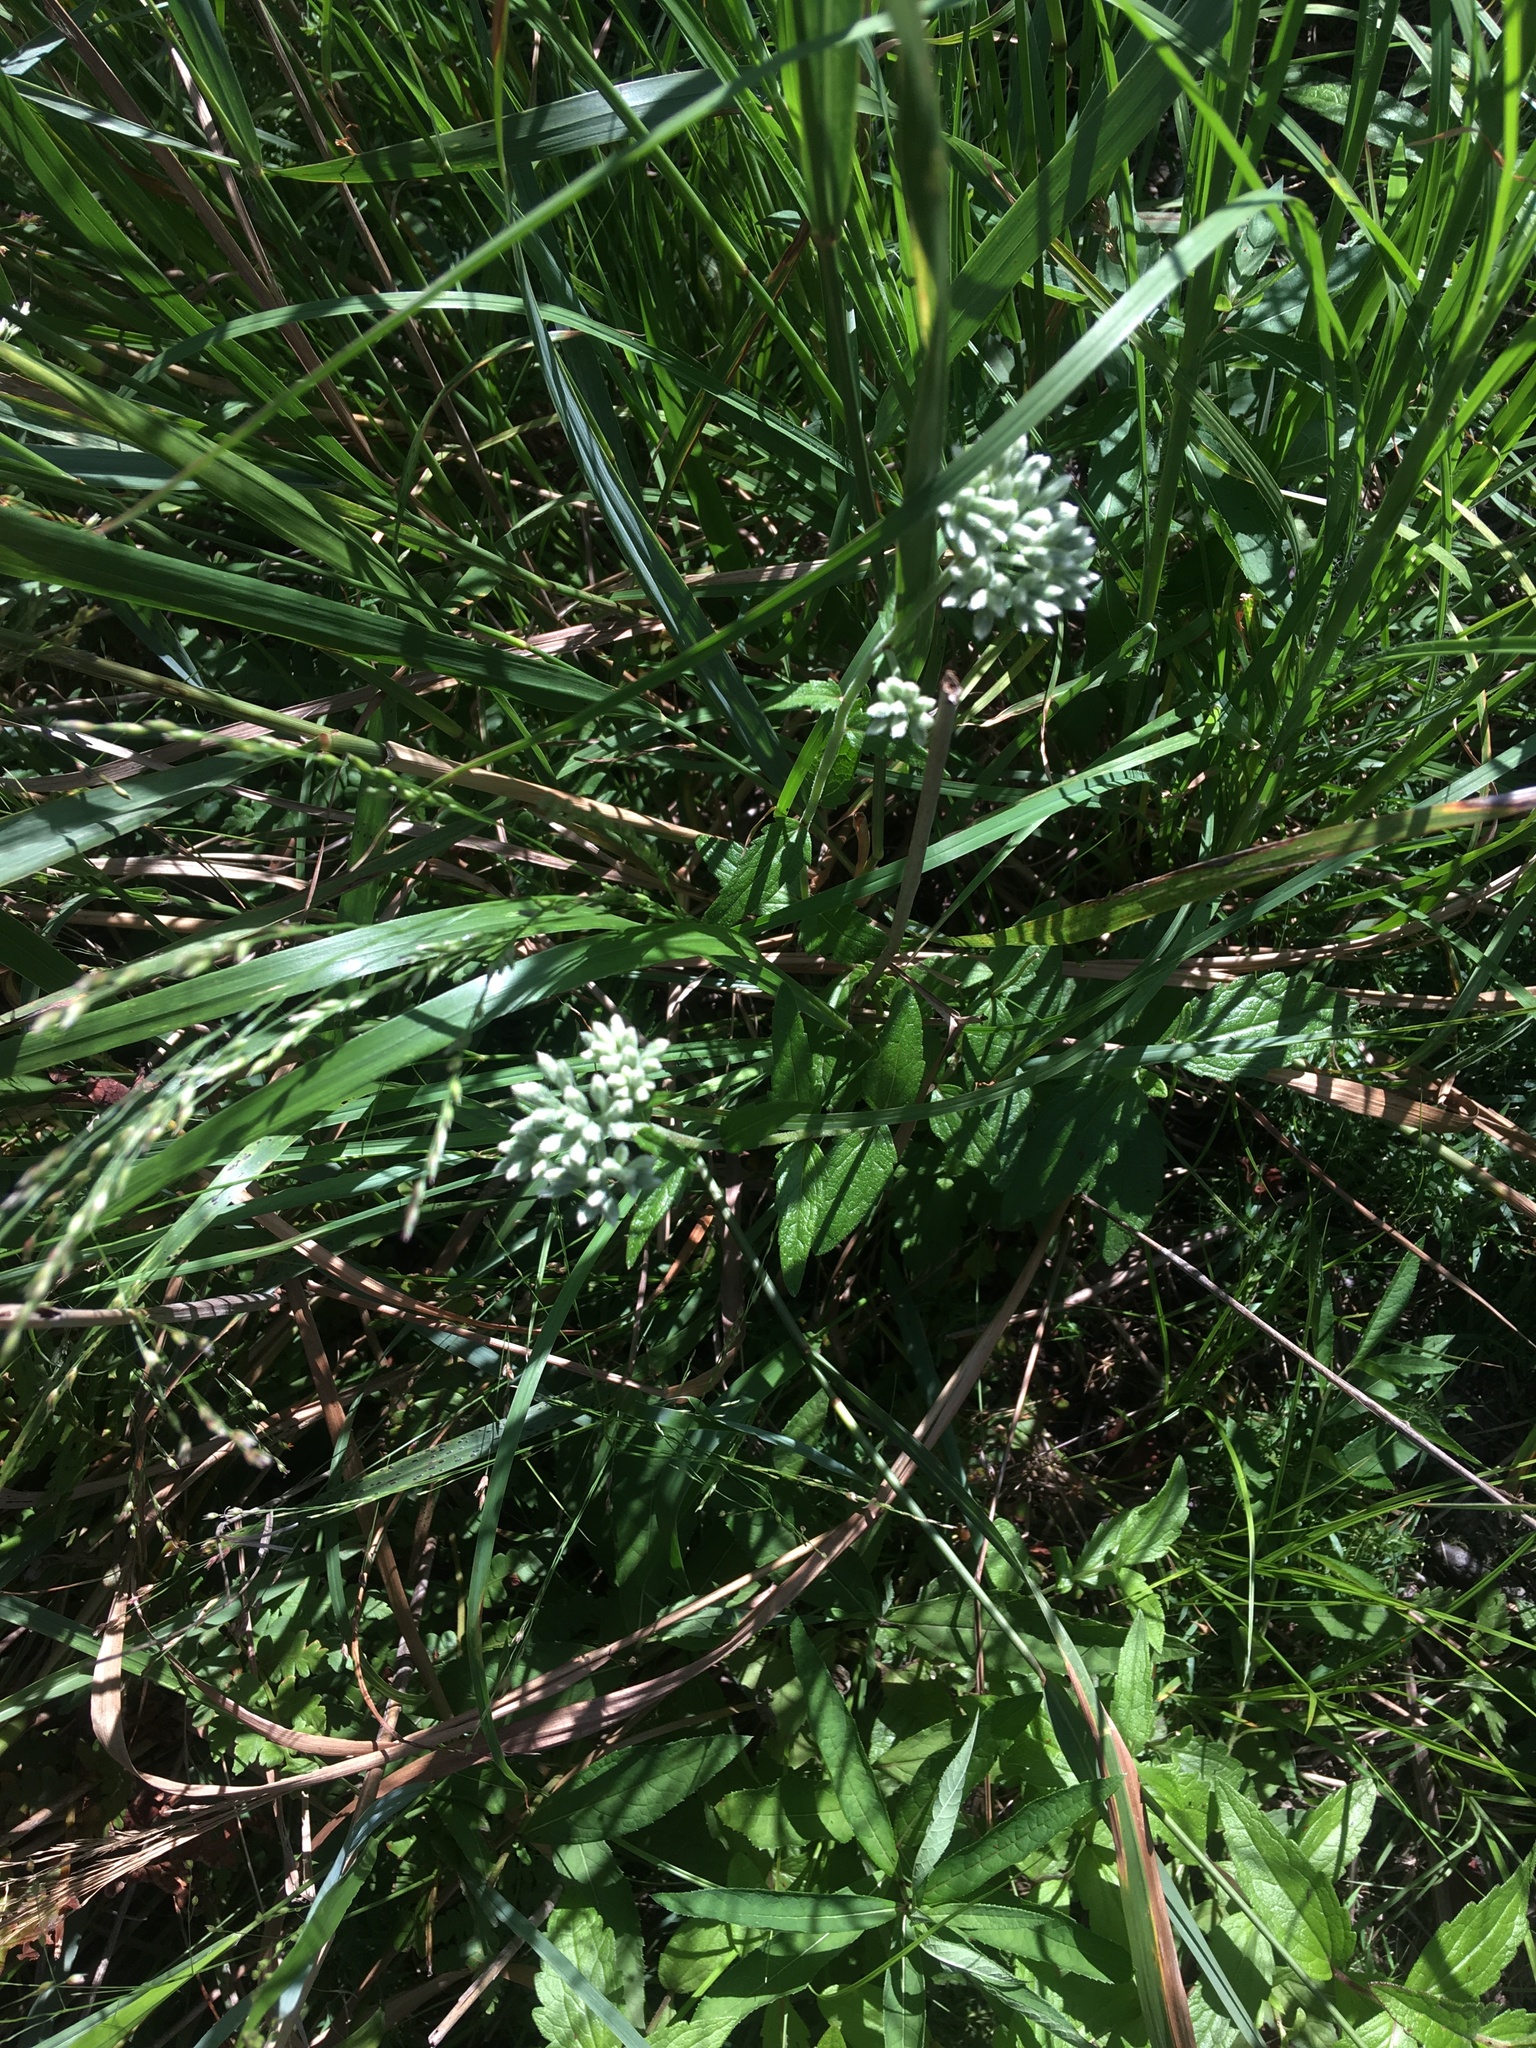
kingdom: Plantae
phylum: Tracheophyta
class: Magnoliopsida
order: Asterales
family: Asteraceae
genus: Eupatorium
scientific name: Eupatorium pilosum
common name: Rough boneset
